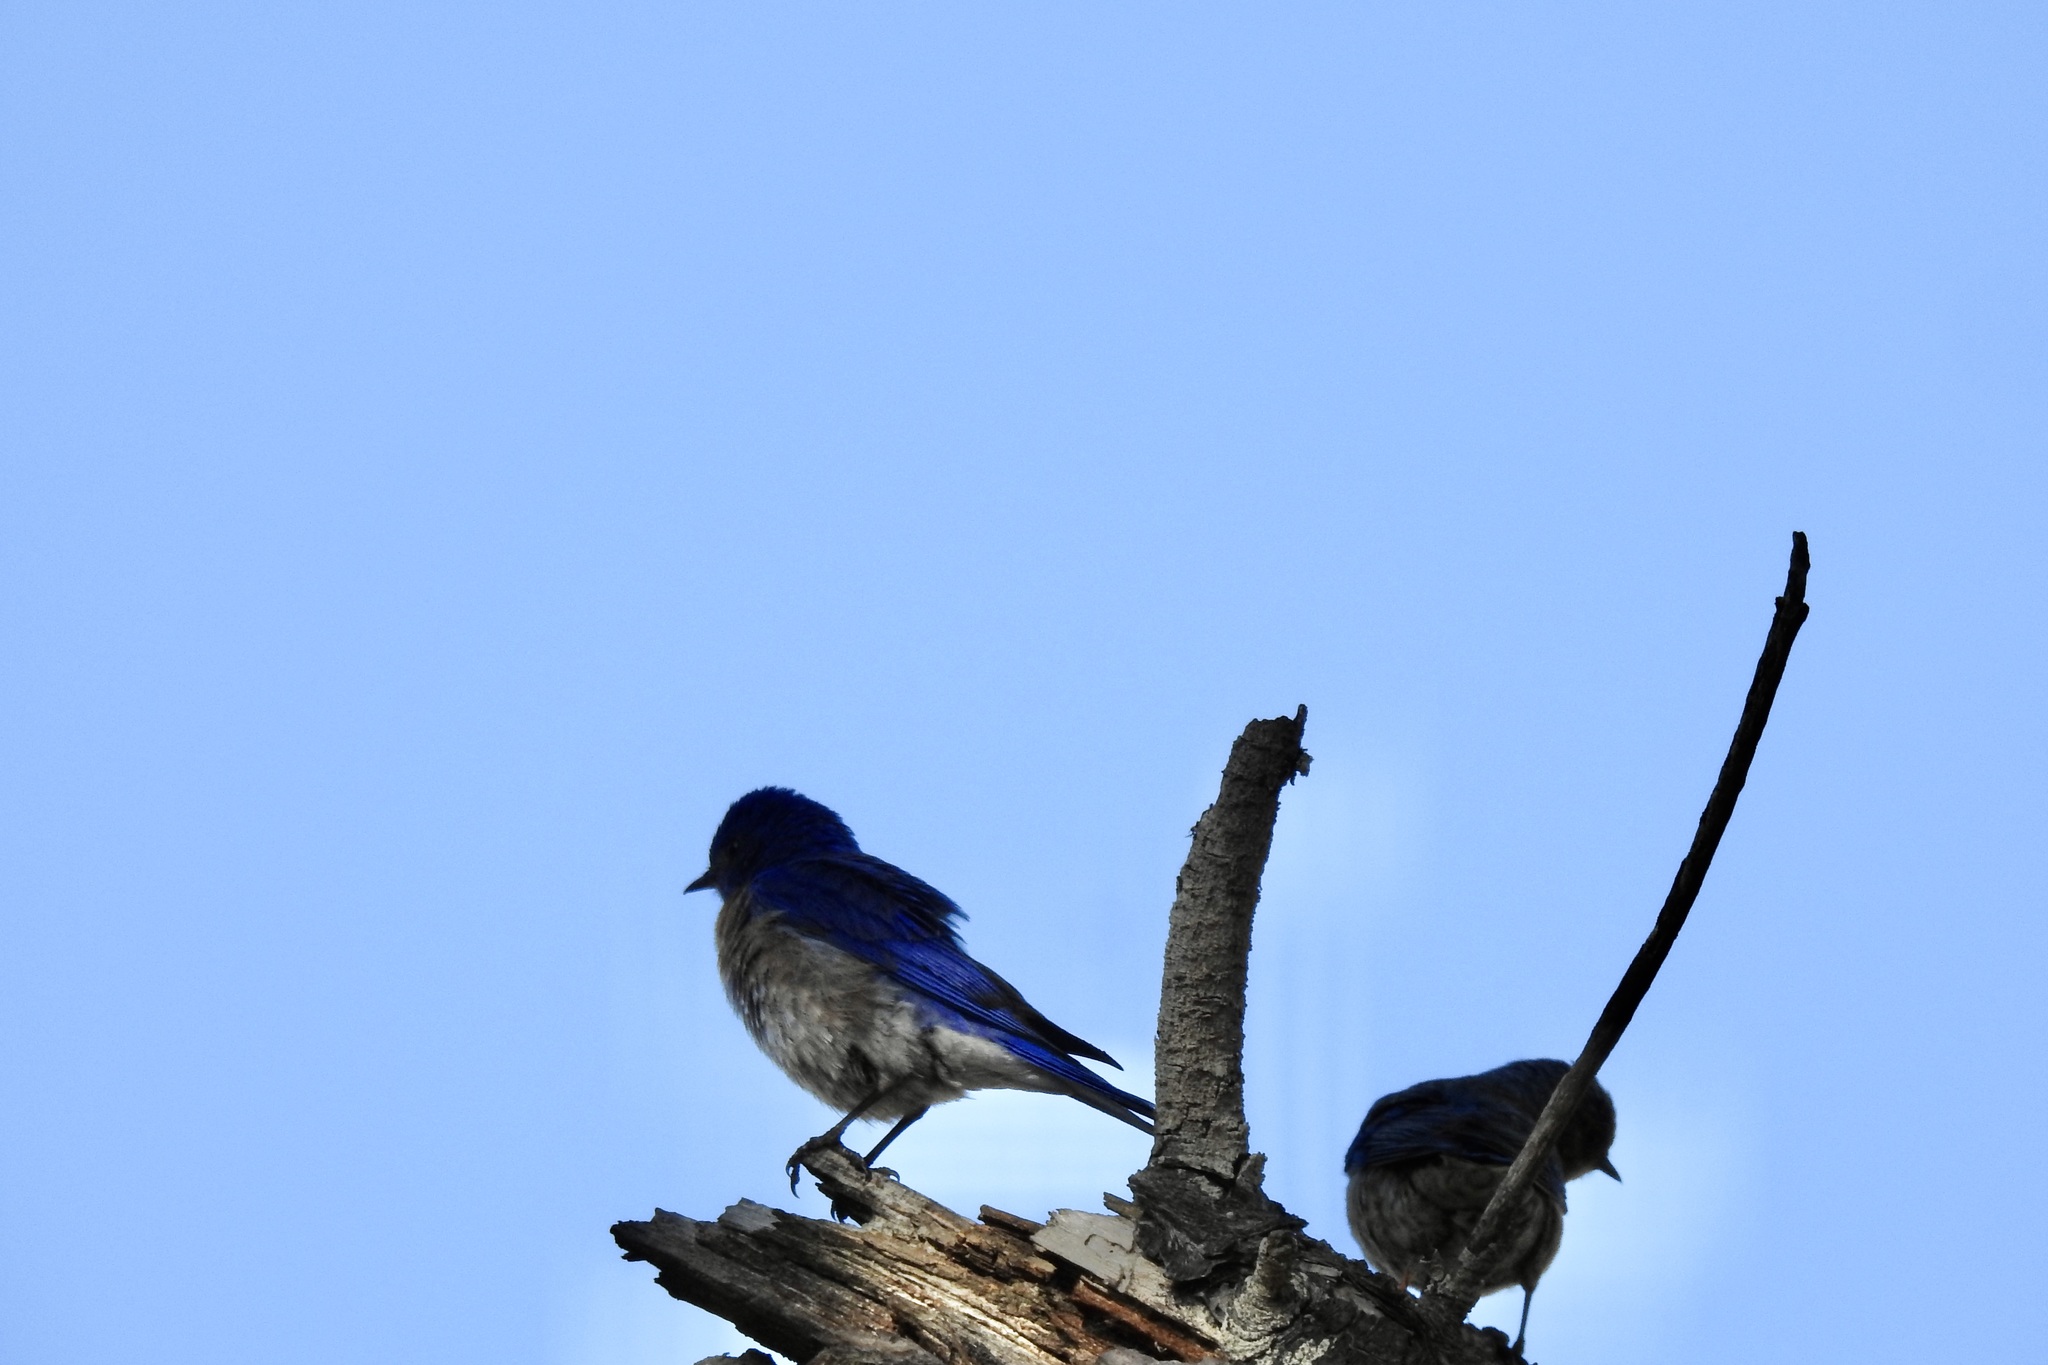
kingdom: Animalia
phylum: Chordata
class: Aves
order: Passeriformes
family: Turdidae
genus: Sialia
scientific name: Sialia mexicana
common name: Western bluebird
